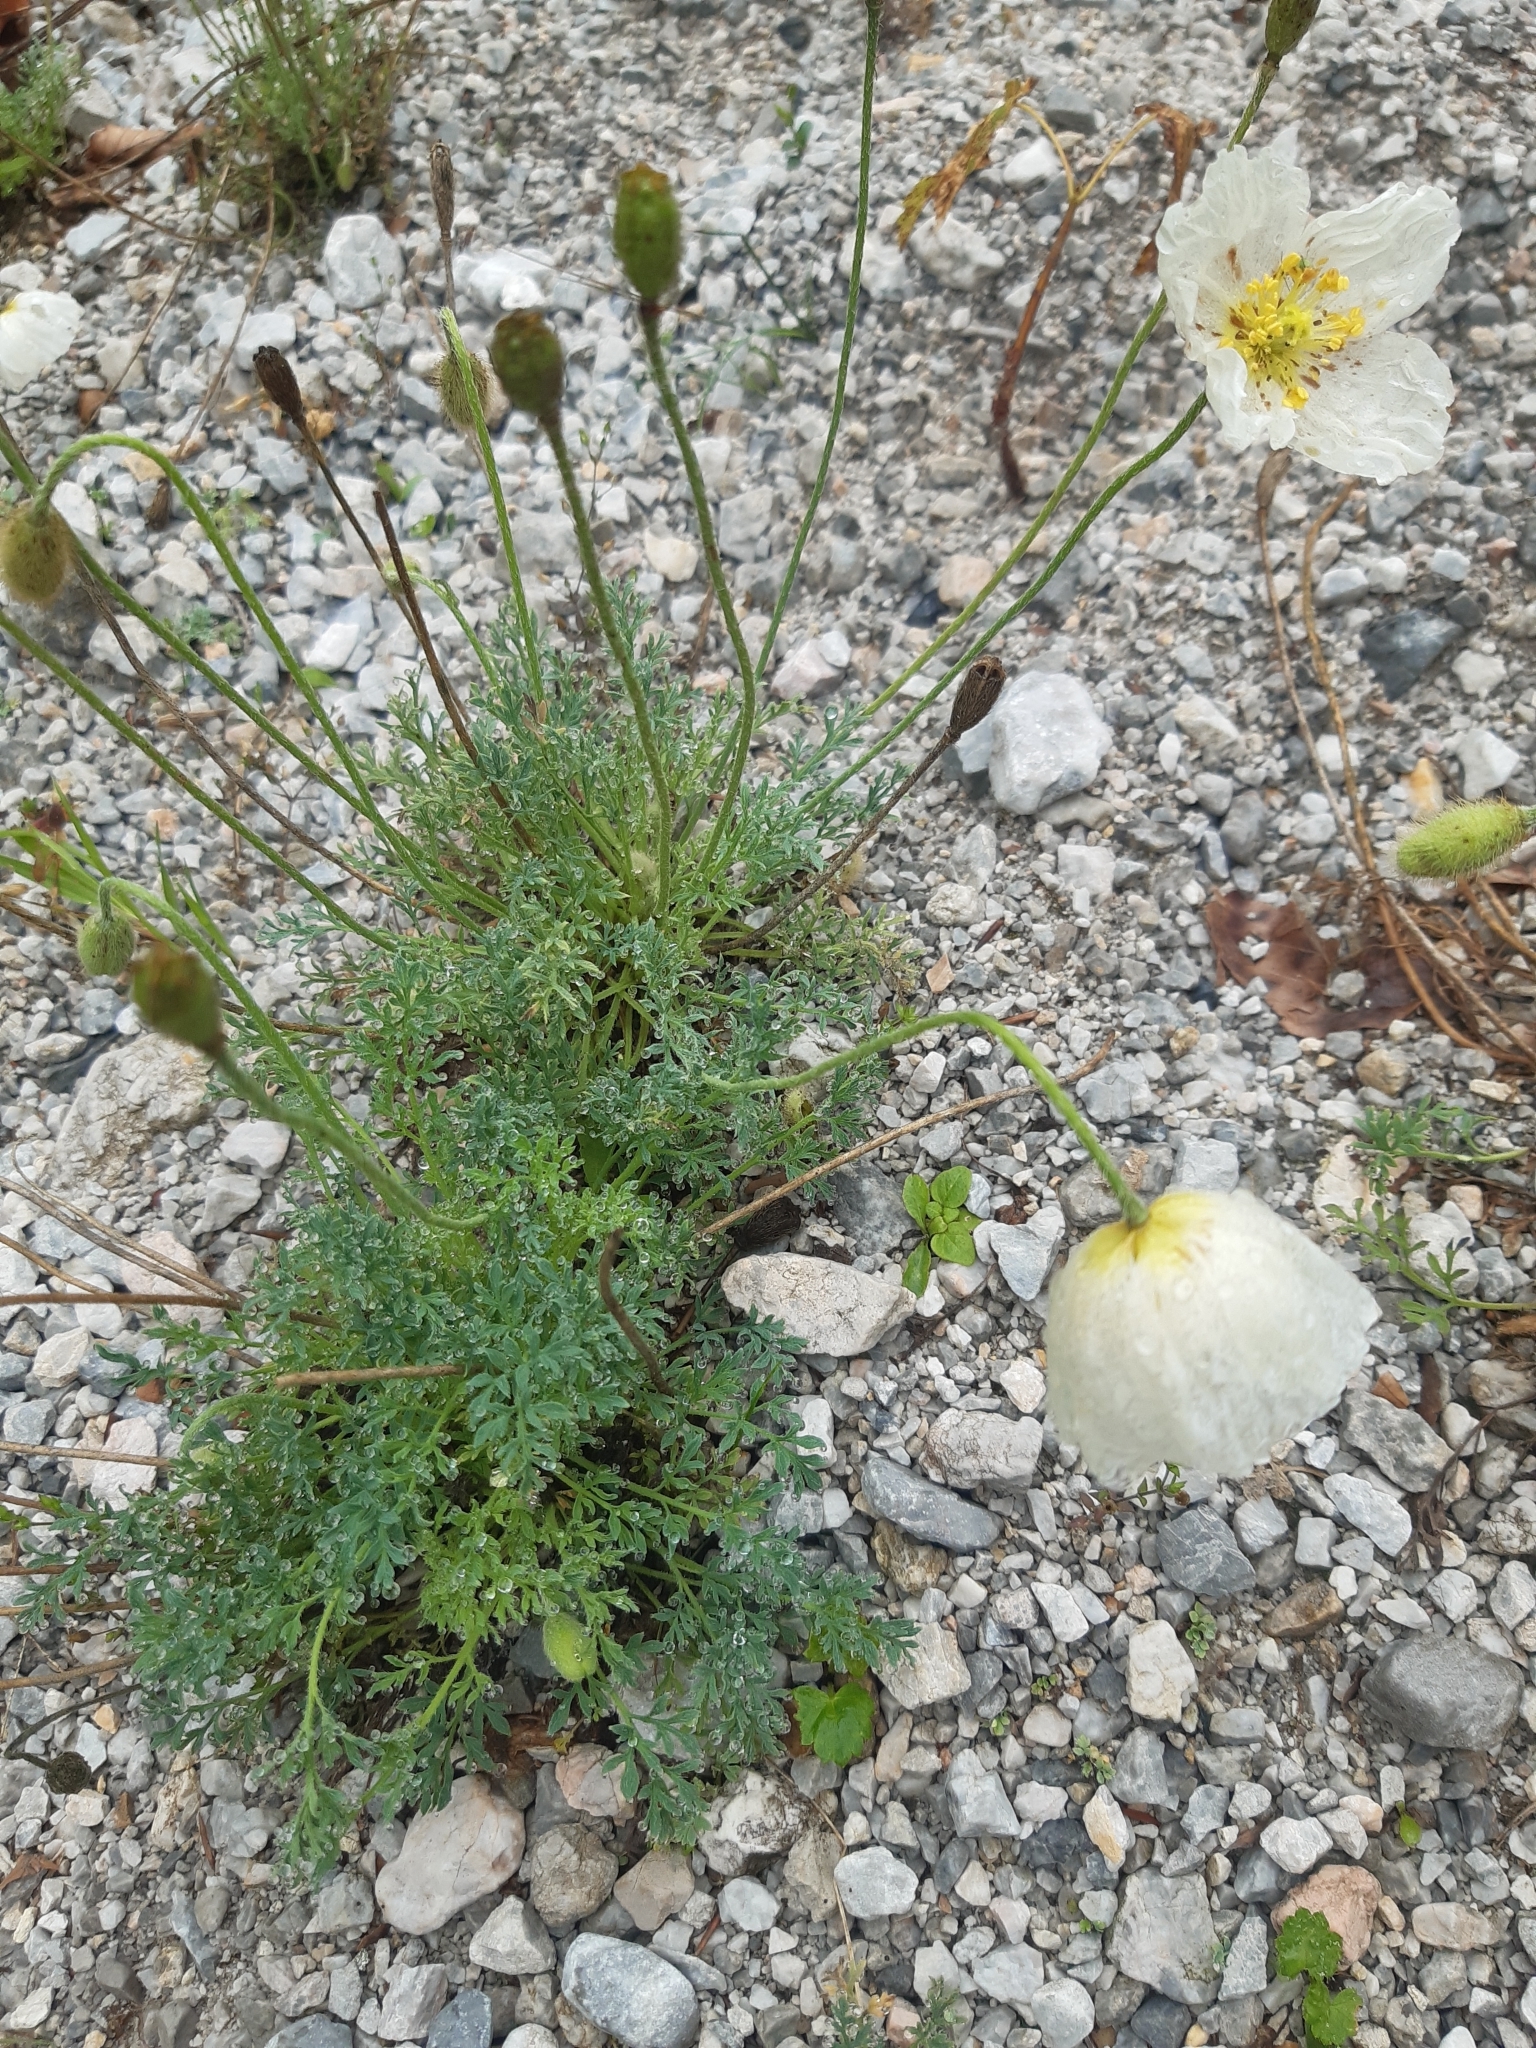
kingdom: Plantae
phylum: Tracheophyta
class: Magnoliopsida
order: Ranunculales
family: Papaveraceae
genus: Papaver
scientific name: Papaver alpinum
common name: Austrian poppy
